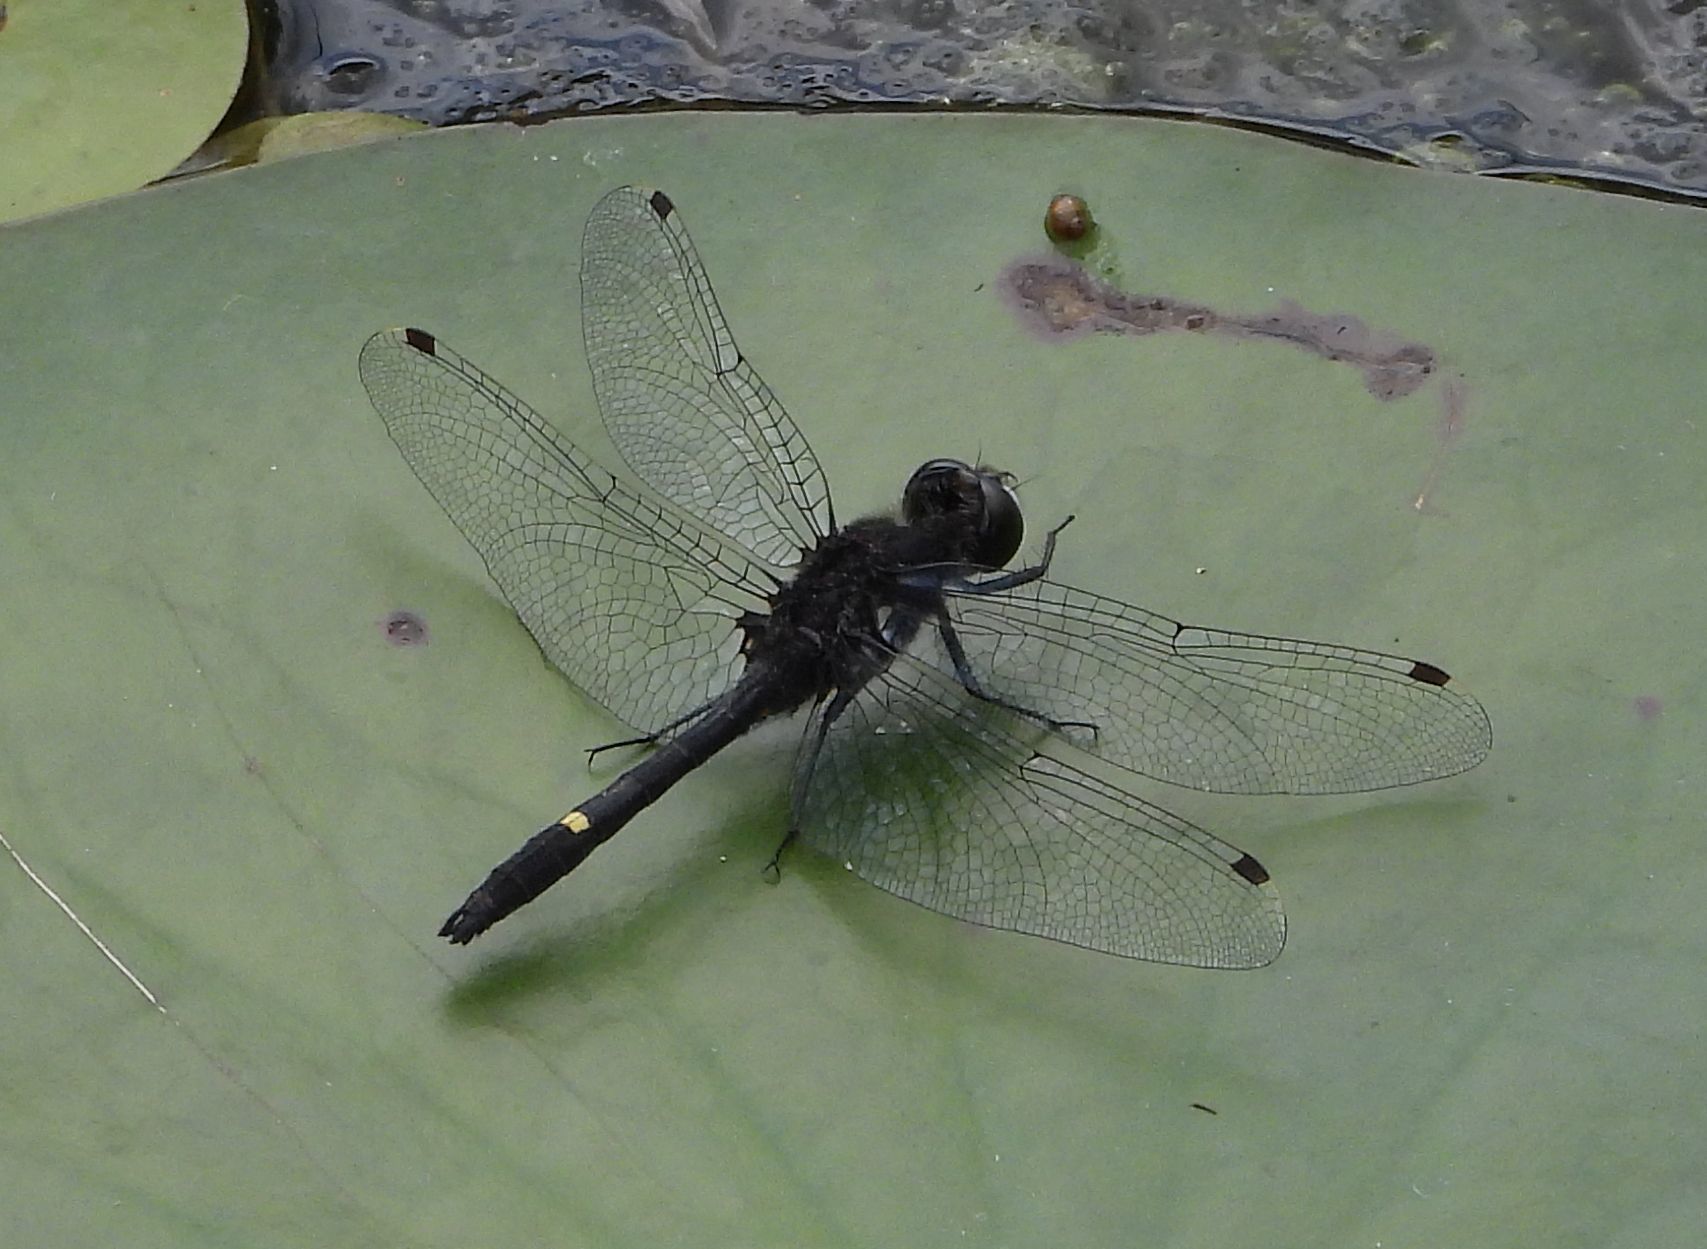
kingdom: Animalia
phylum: Arthropoda
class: Insecta
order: Odonata
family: Libellulidae
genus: Leucorrhinia
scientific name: Leucorrhinia intacta
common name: Dot-tailed whiteface
